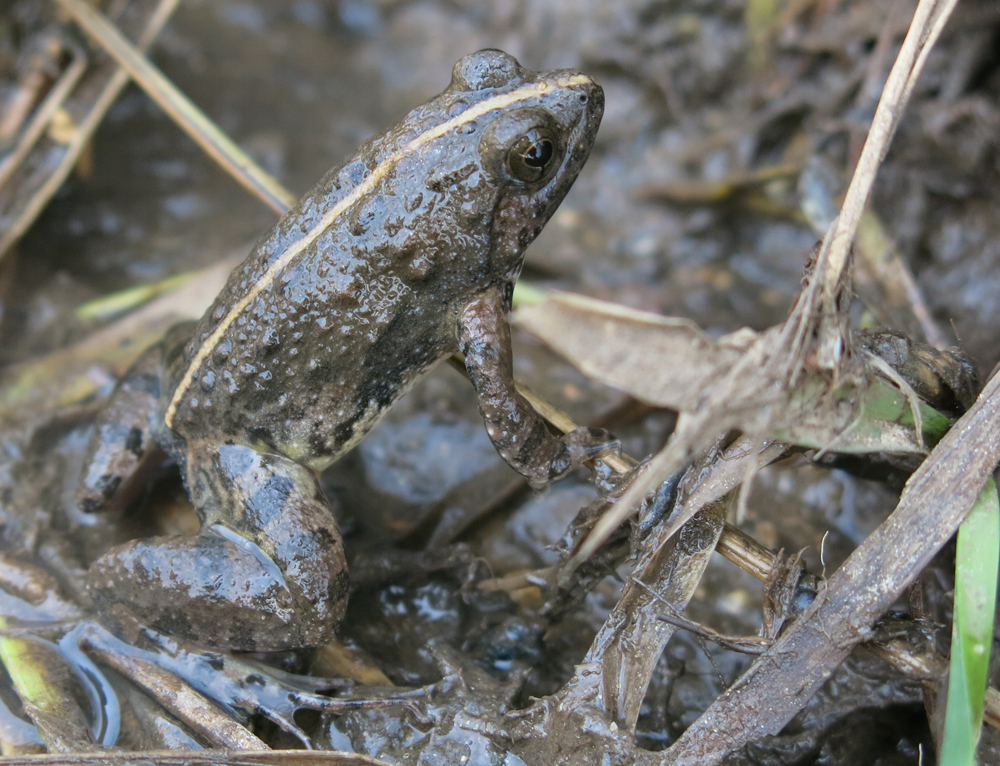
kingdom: Animalia
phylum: Chordata
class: Amphibia
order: Anura
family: Phrynobatrachidae
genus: Phrynobatrachus
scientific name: Phrynobatrachus natalensis
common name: Snoring puddle frog
